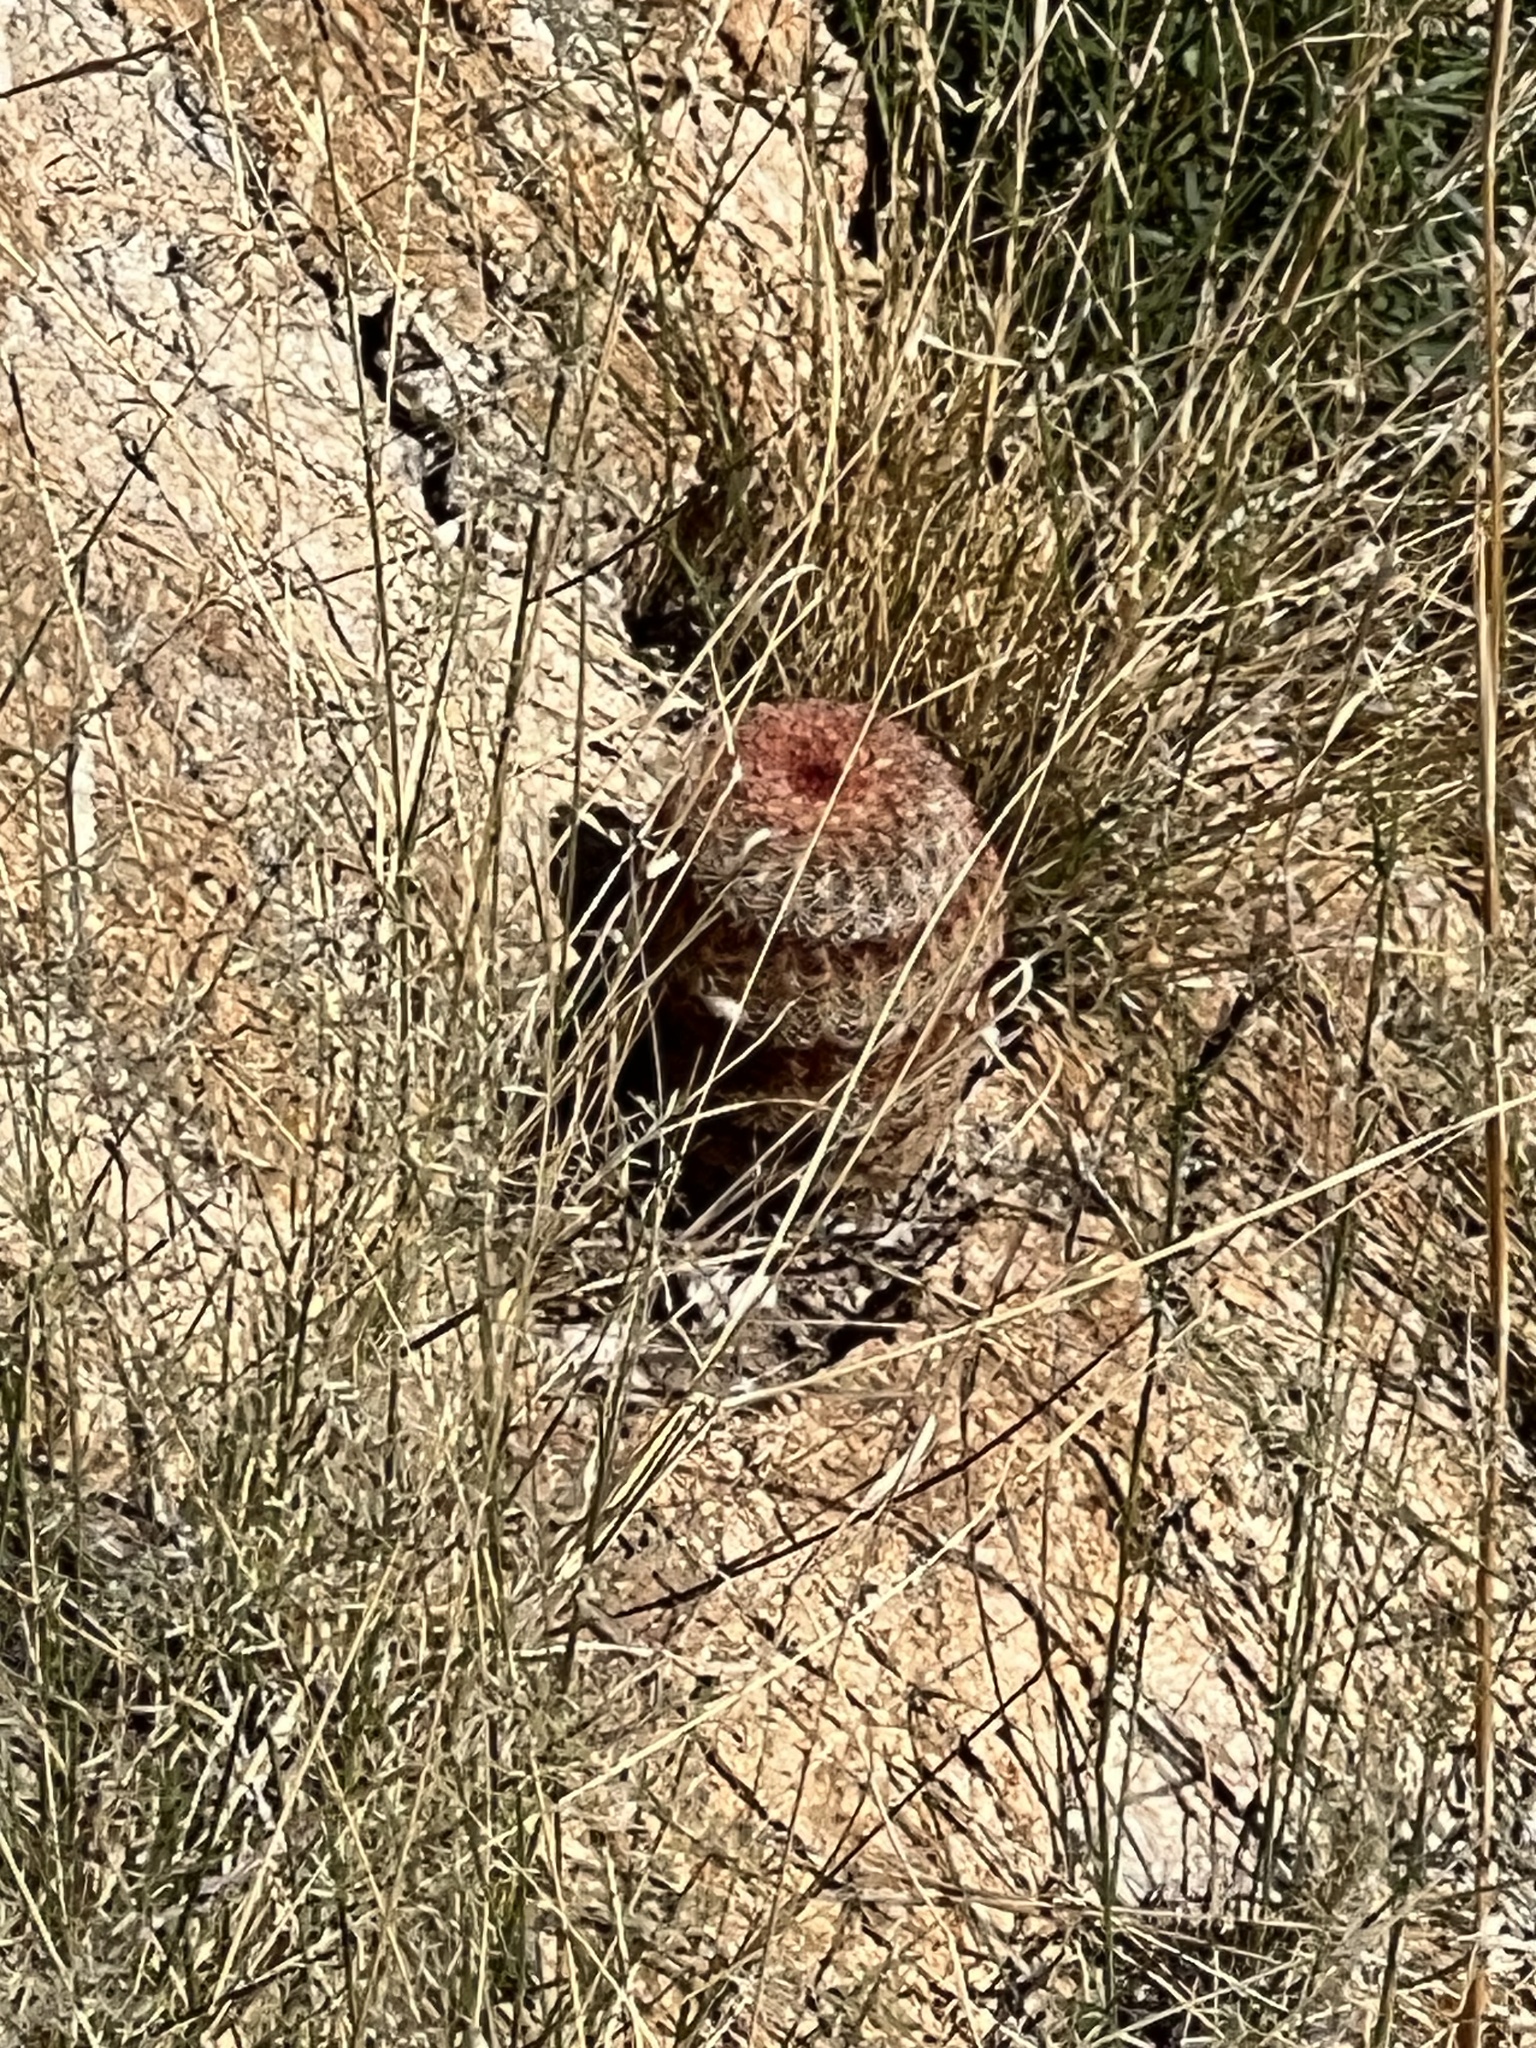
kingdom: Plantae
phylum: Tracheophyta
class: Magnoliopsida
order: Caryophyllales
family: Cactaceae
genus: Echinocereus
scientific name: Echinocereus rigidissimus
